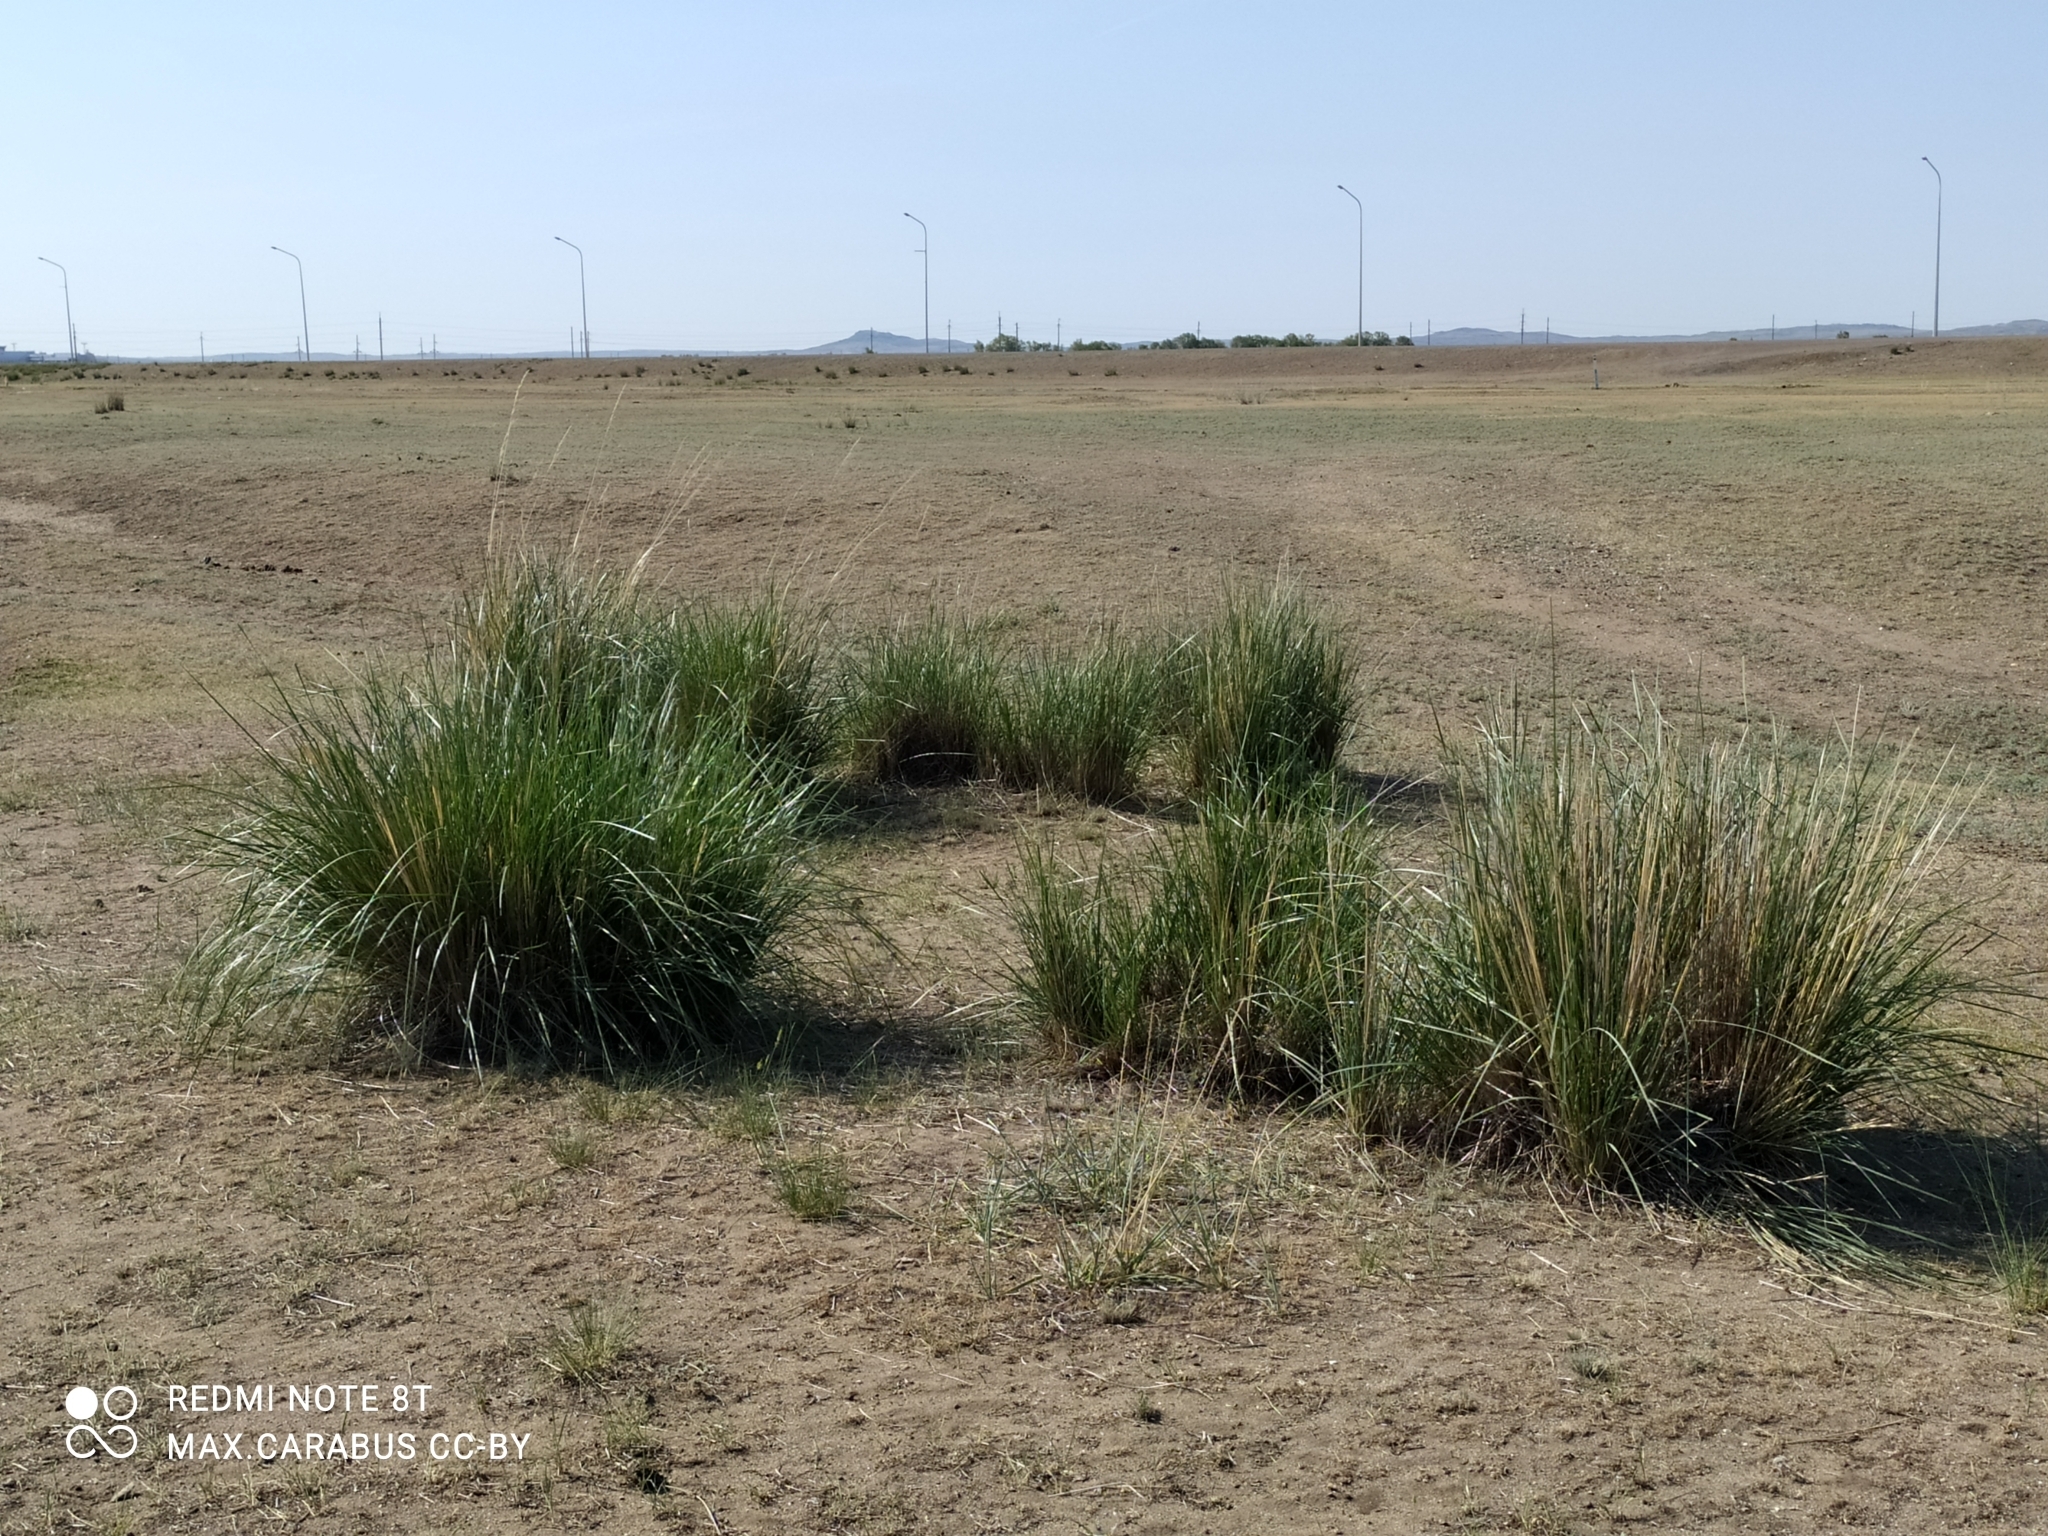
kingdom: Plantae
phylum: Tracheophyta
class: Liliopsida
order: Poales
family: Poaceae
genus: Neotrinia
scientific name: Neotrinia splendens
